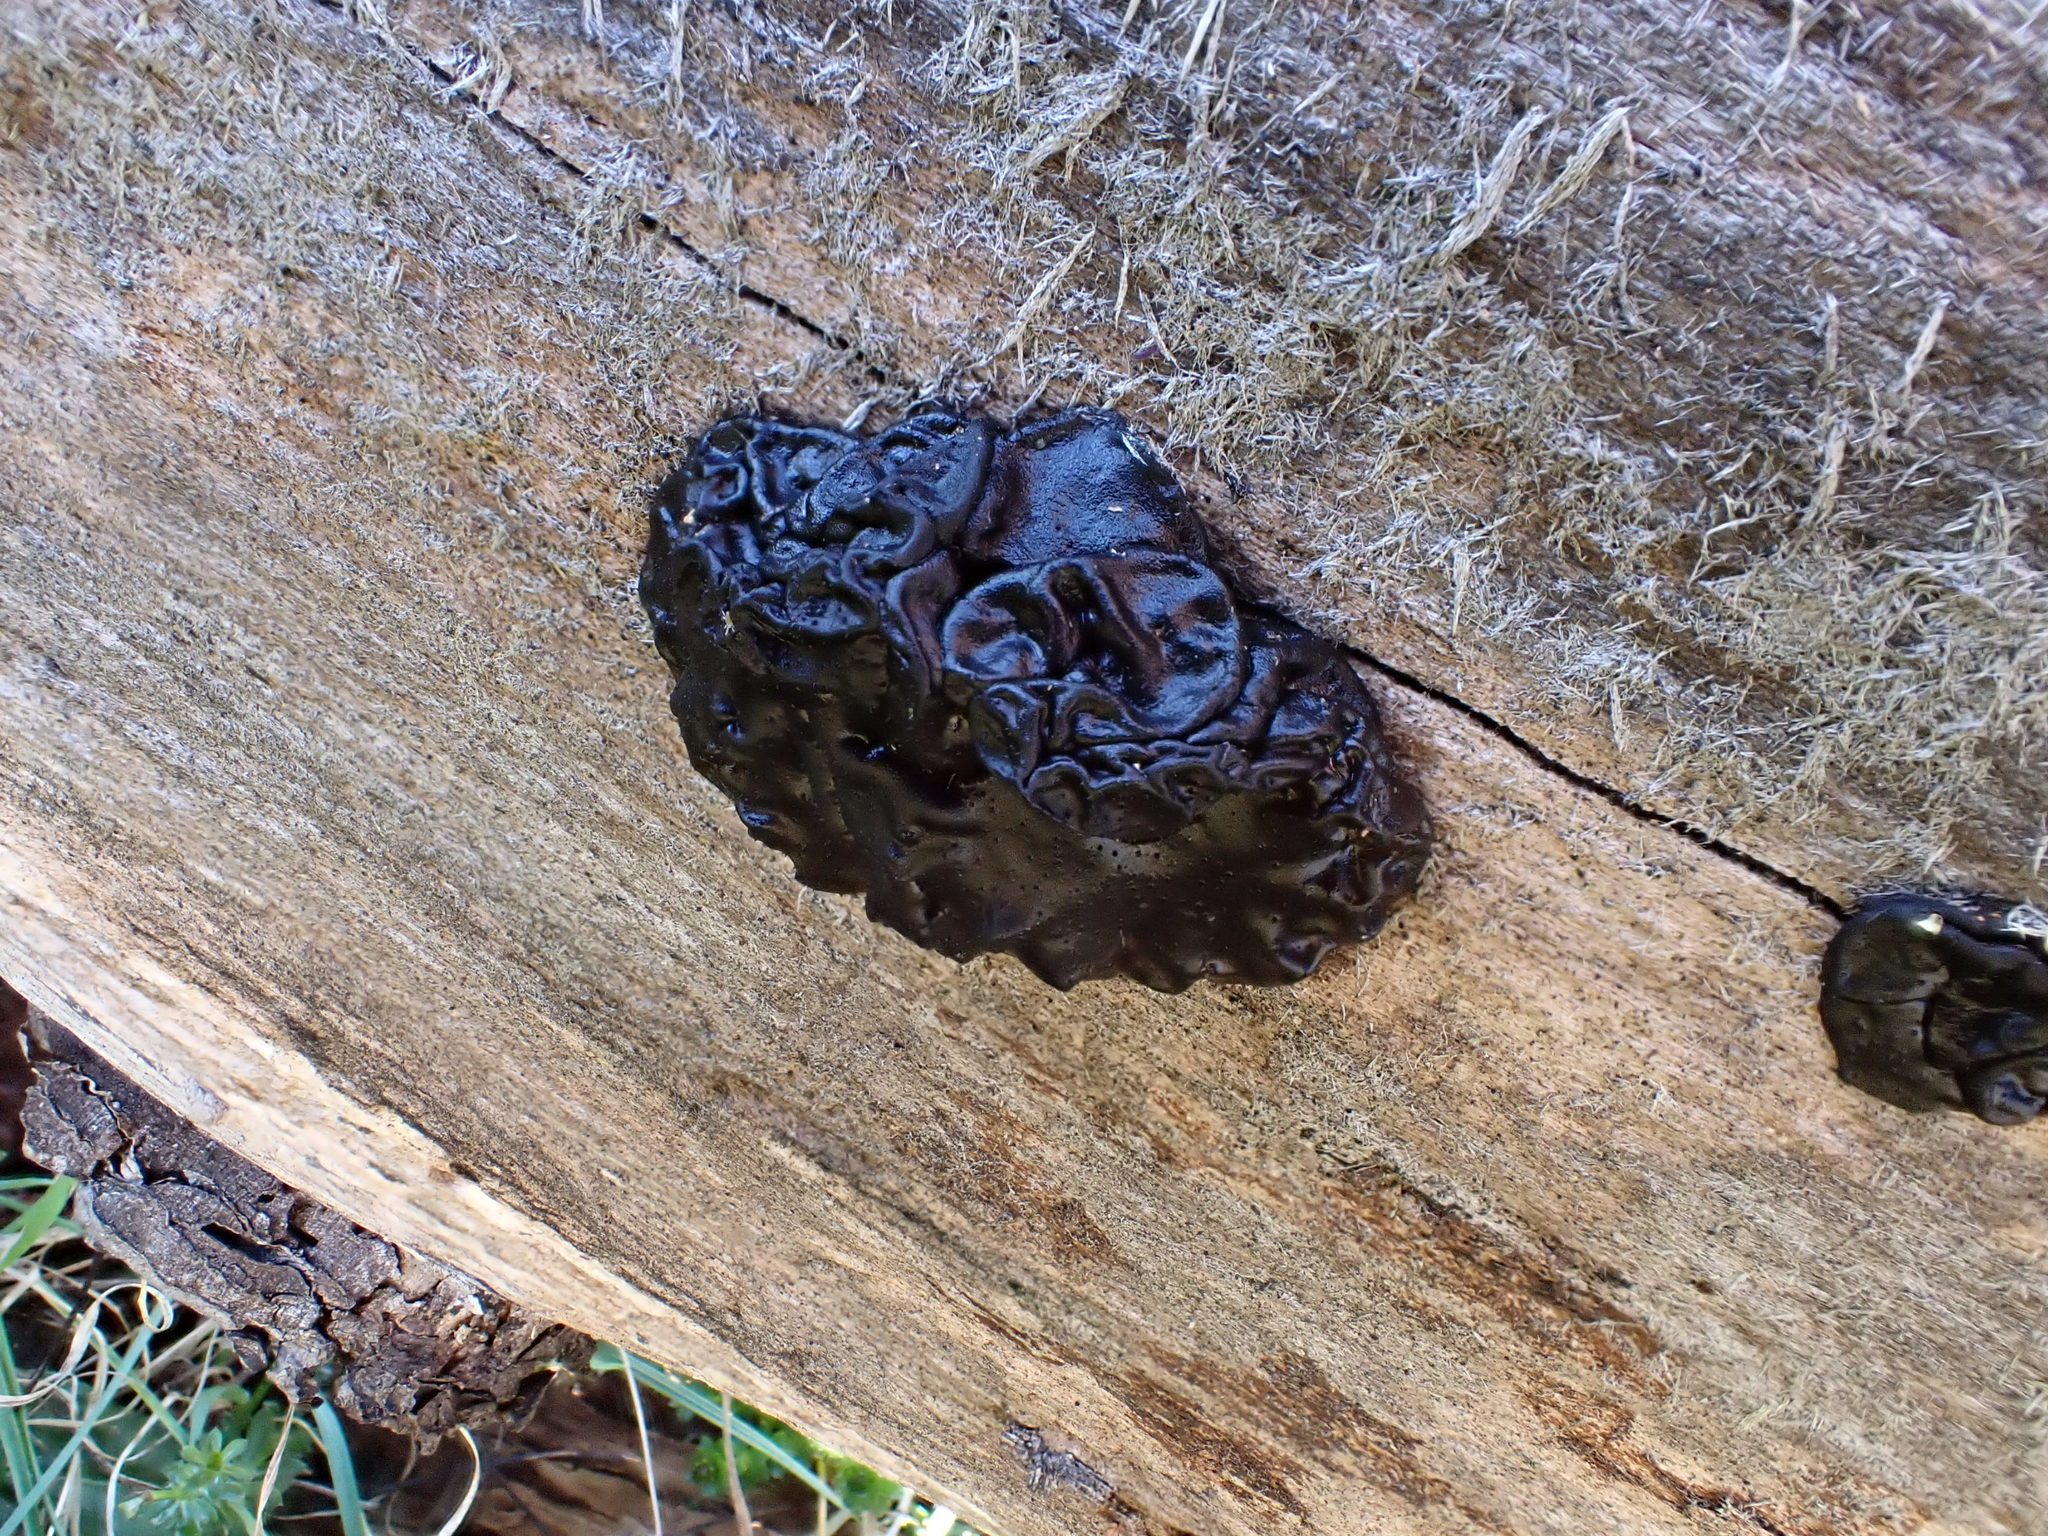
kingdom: Fungi
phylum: Basidiomycota
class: Agaricomycetes
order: Auriculariales
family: Auriculariaceae
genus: Exidia
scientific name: Exidia nigricans
